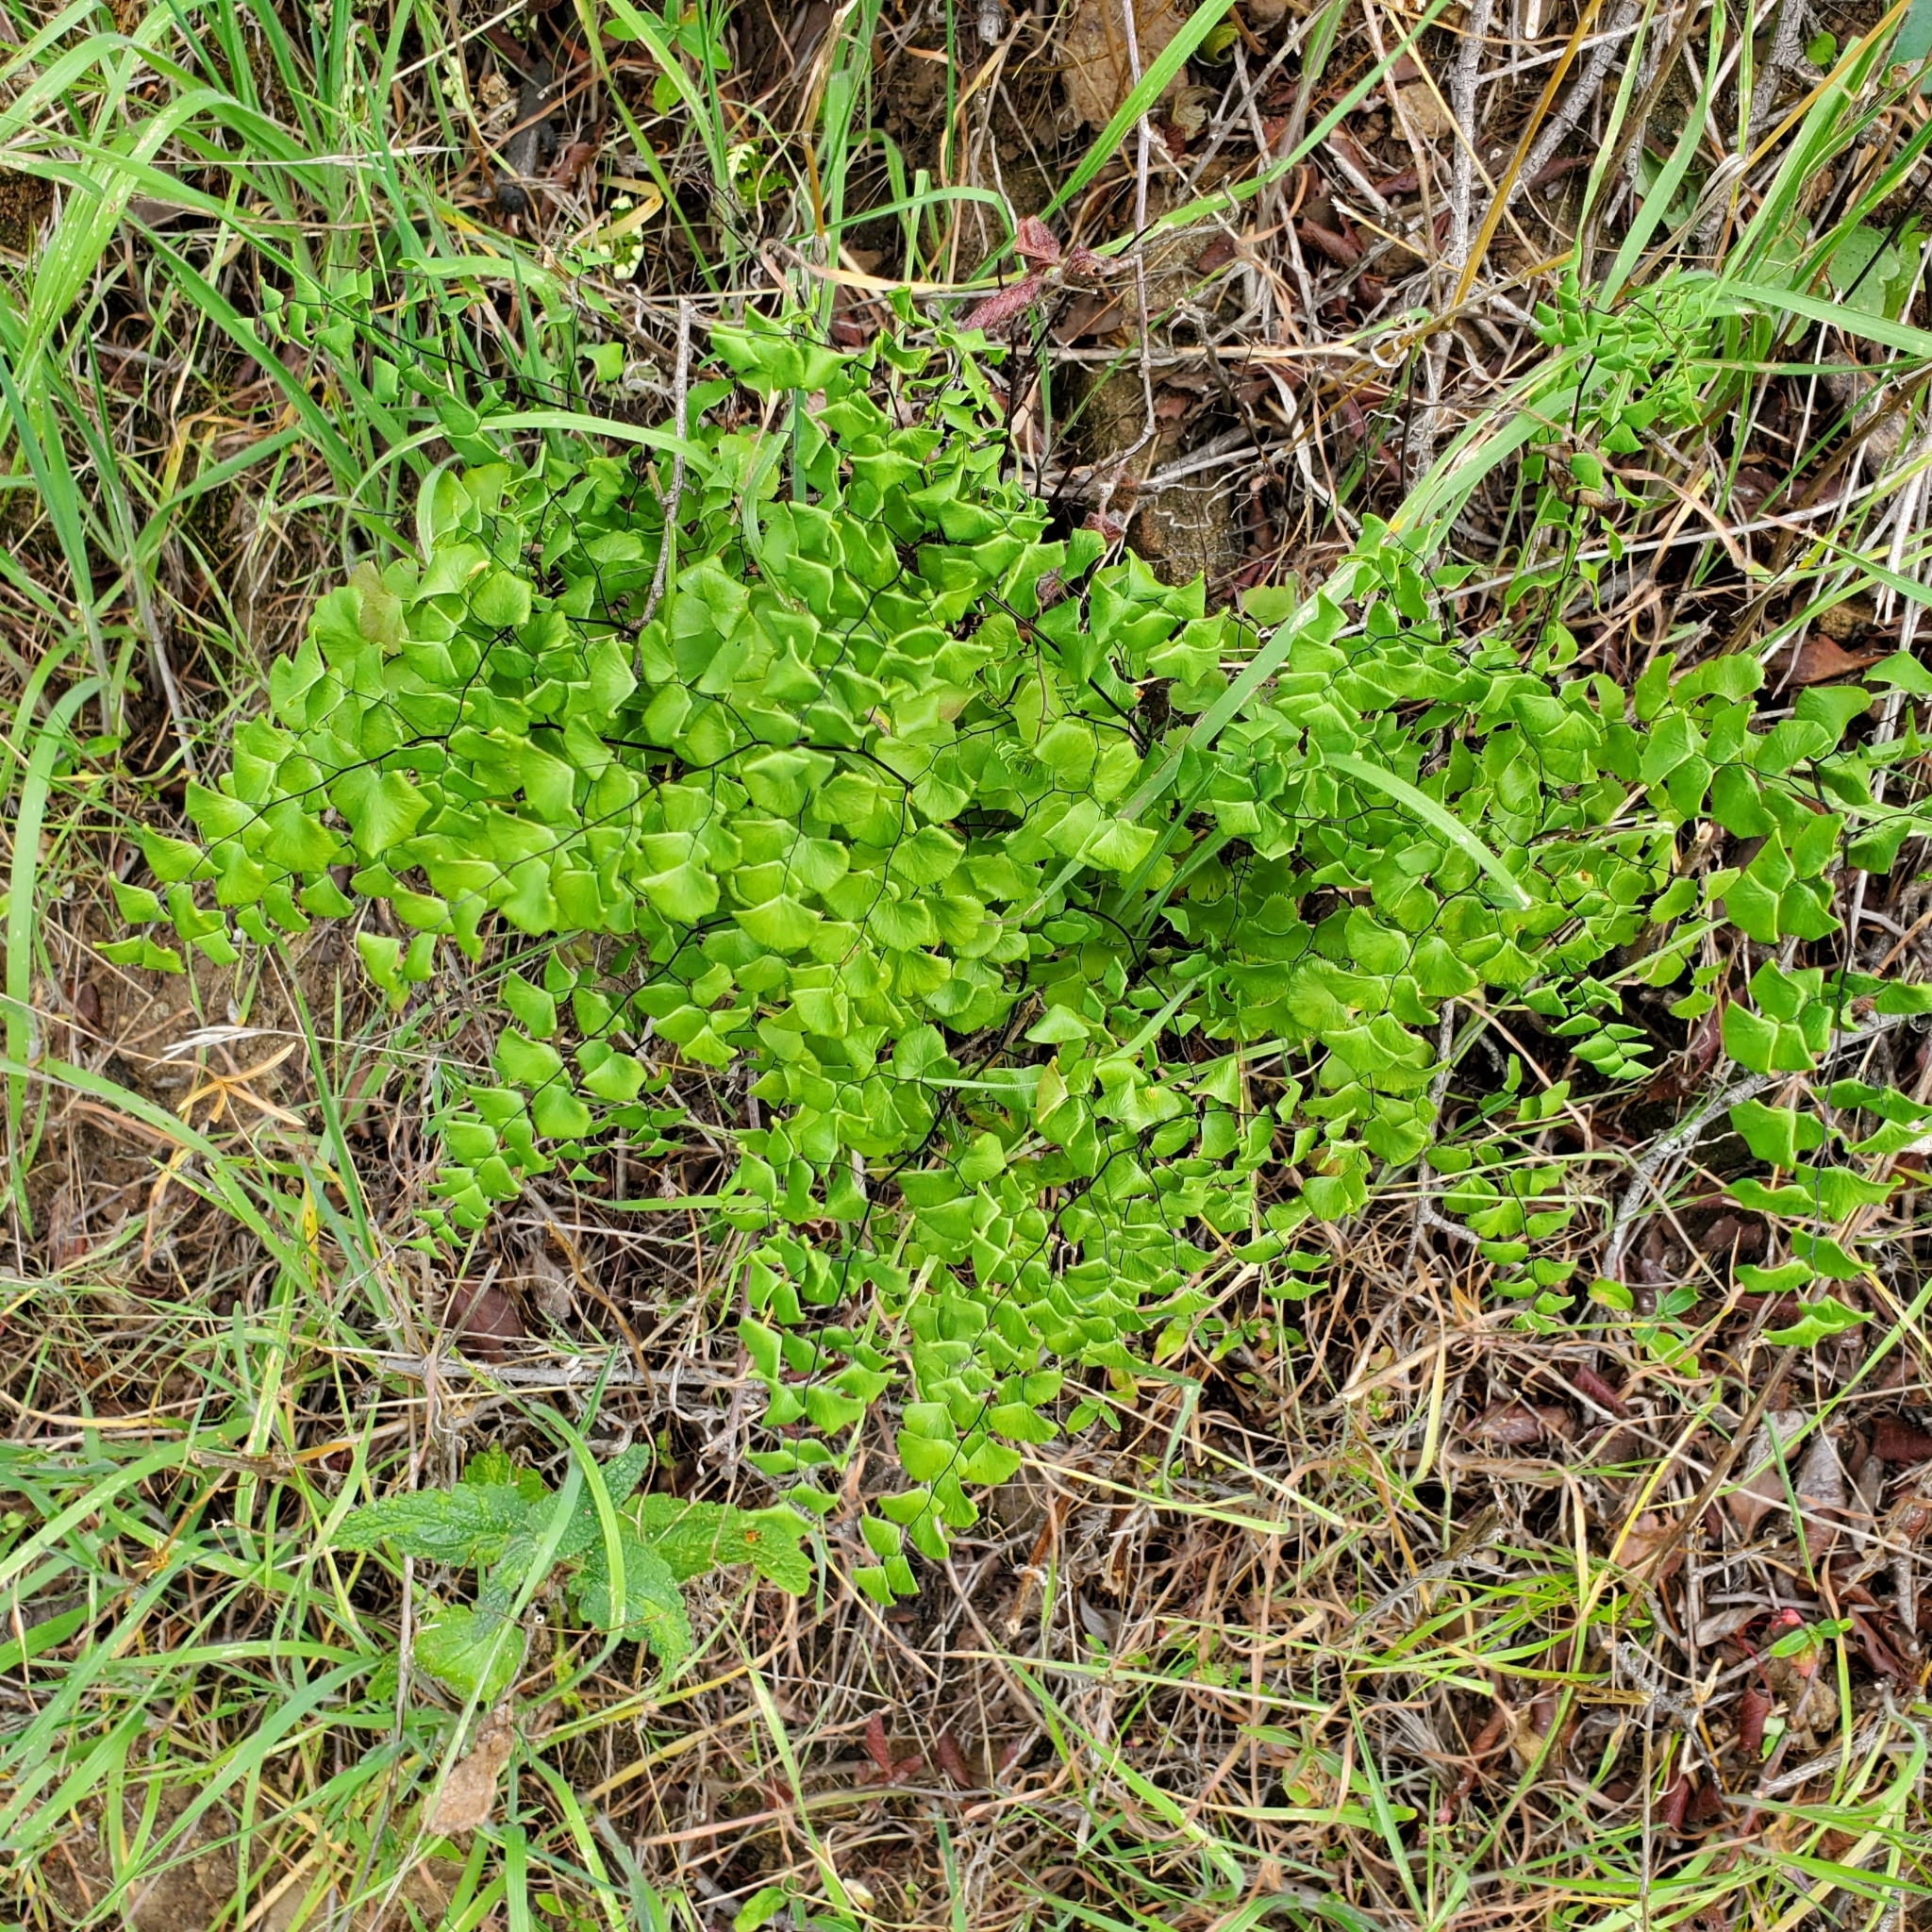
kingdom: Plantae
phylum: Tracheophyta
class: Polypodiopsida
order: Polypodiales
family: Pteridaceae
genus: Adiantum
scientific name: Adiantum jordanii
